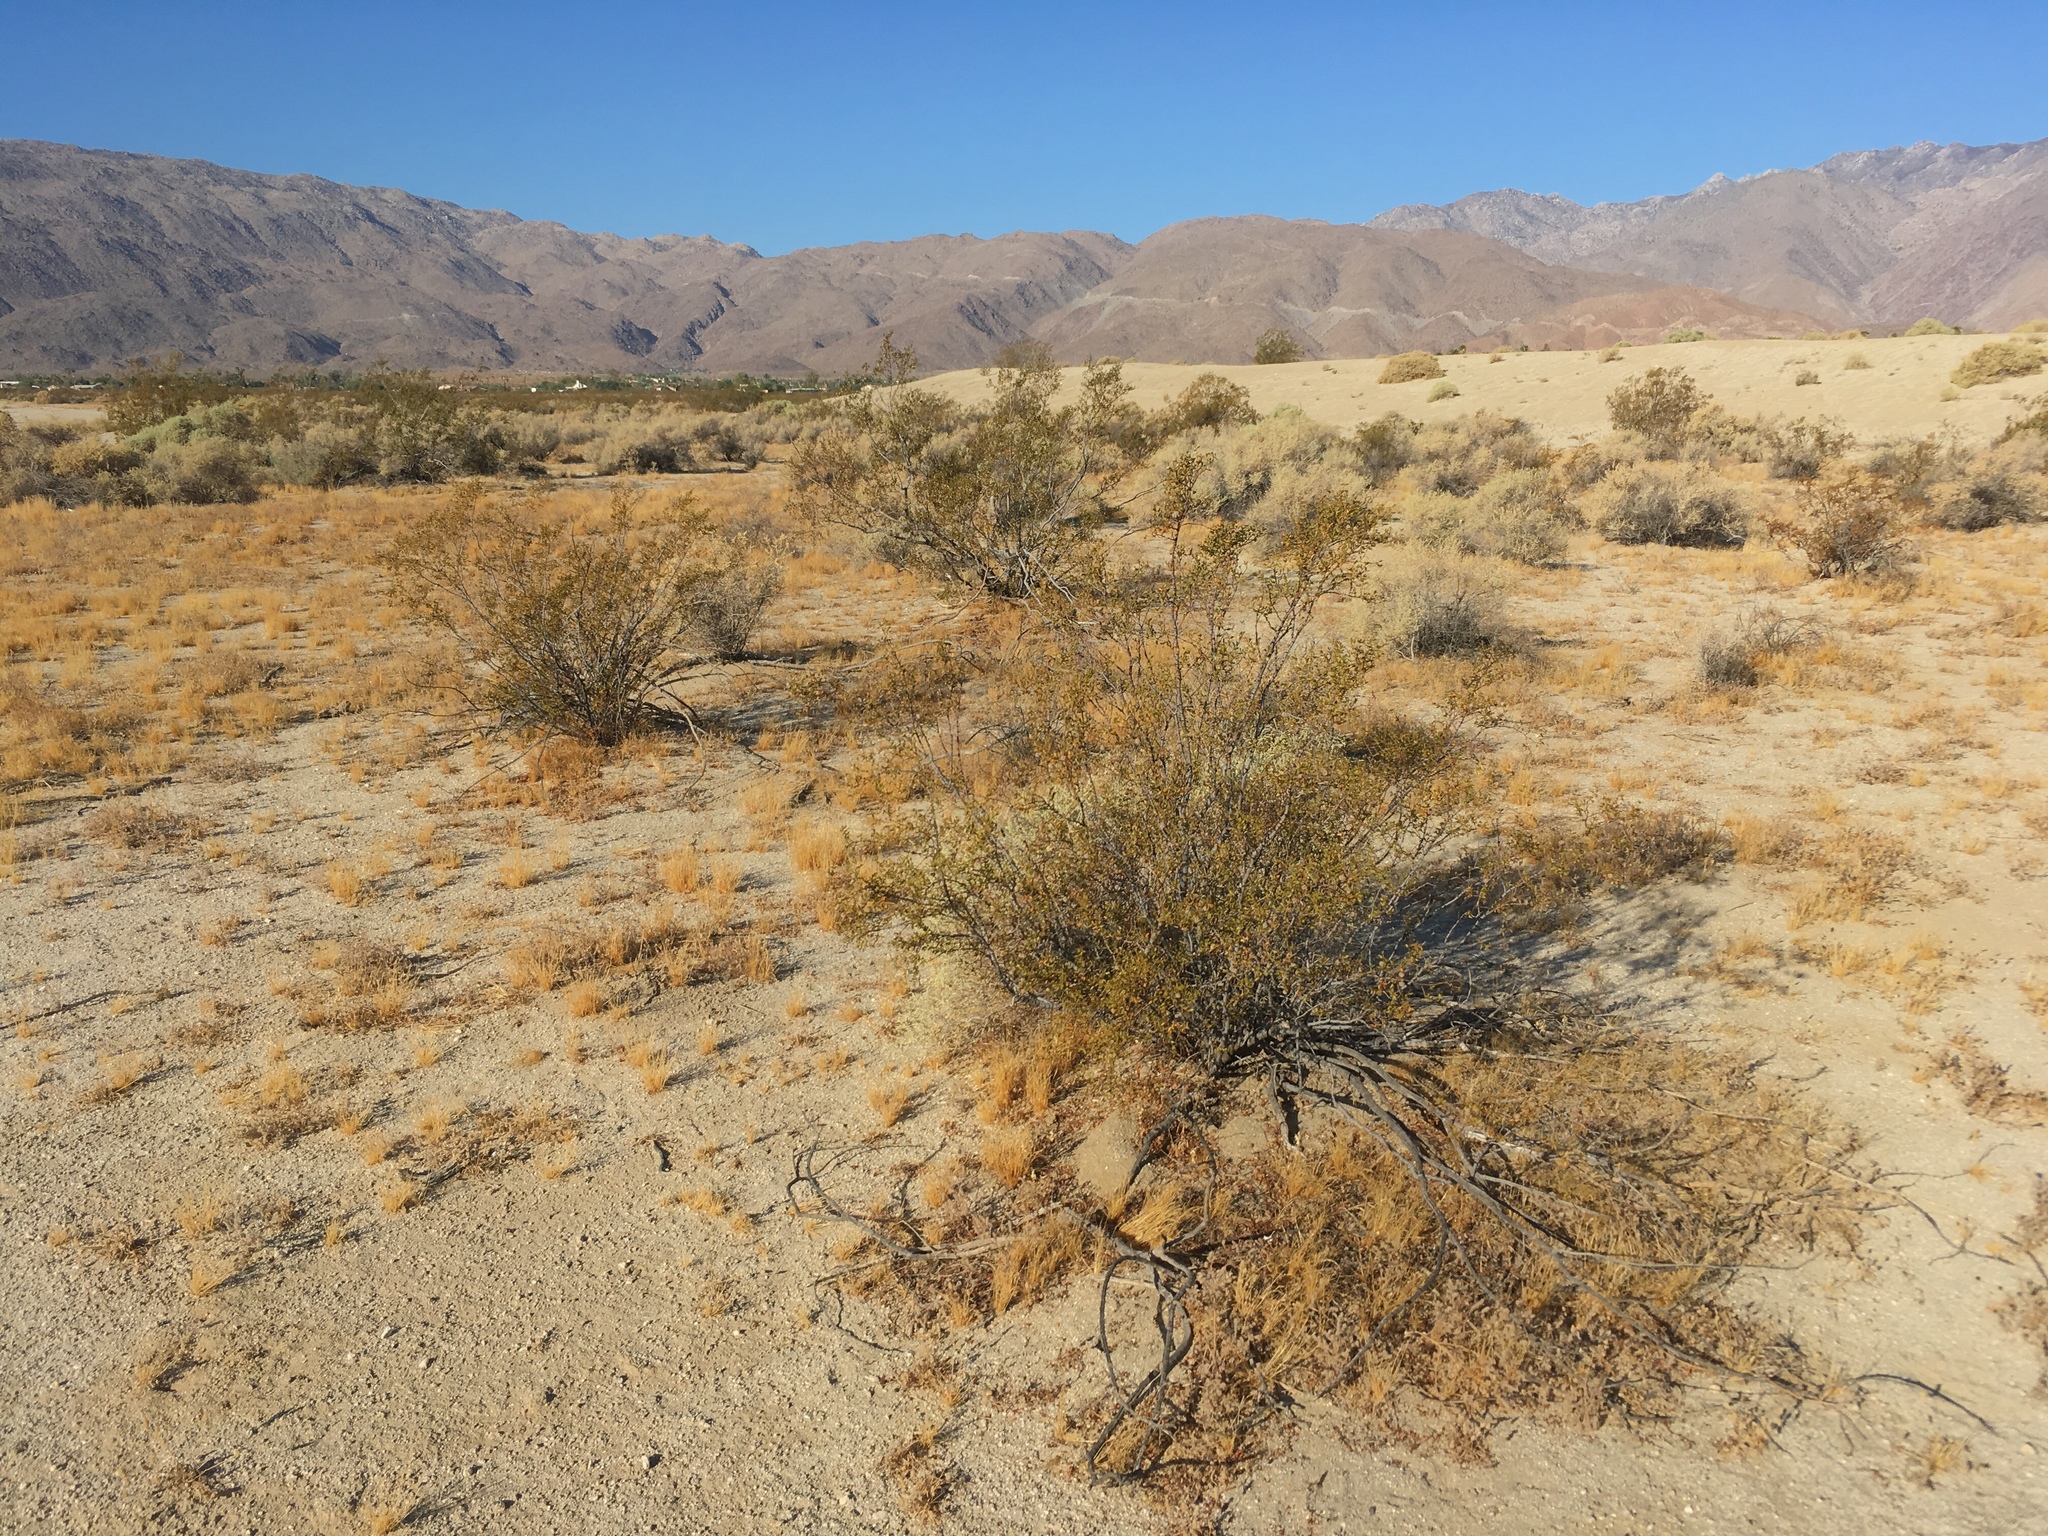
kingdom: Plantae
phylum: Tracheophyta
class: Magnoliopsida
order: Zygophyllales
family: Zygophyllaceae
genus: Larrea
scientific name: Larrea tridentata
